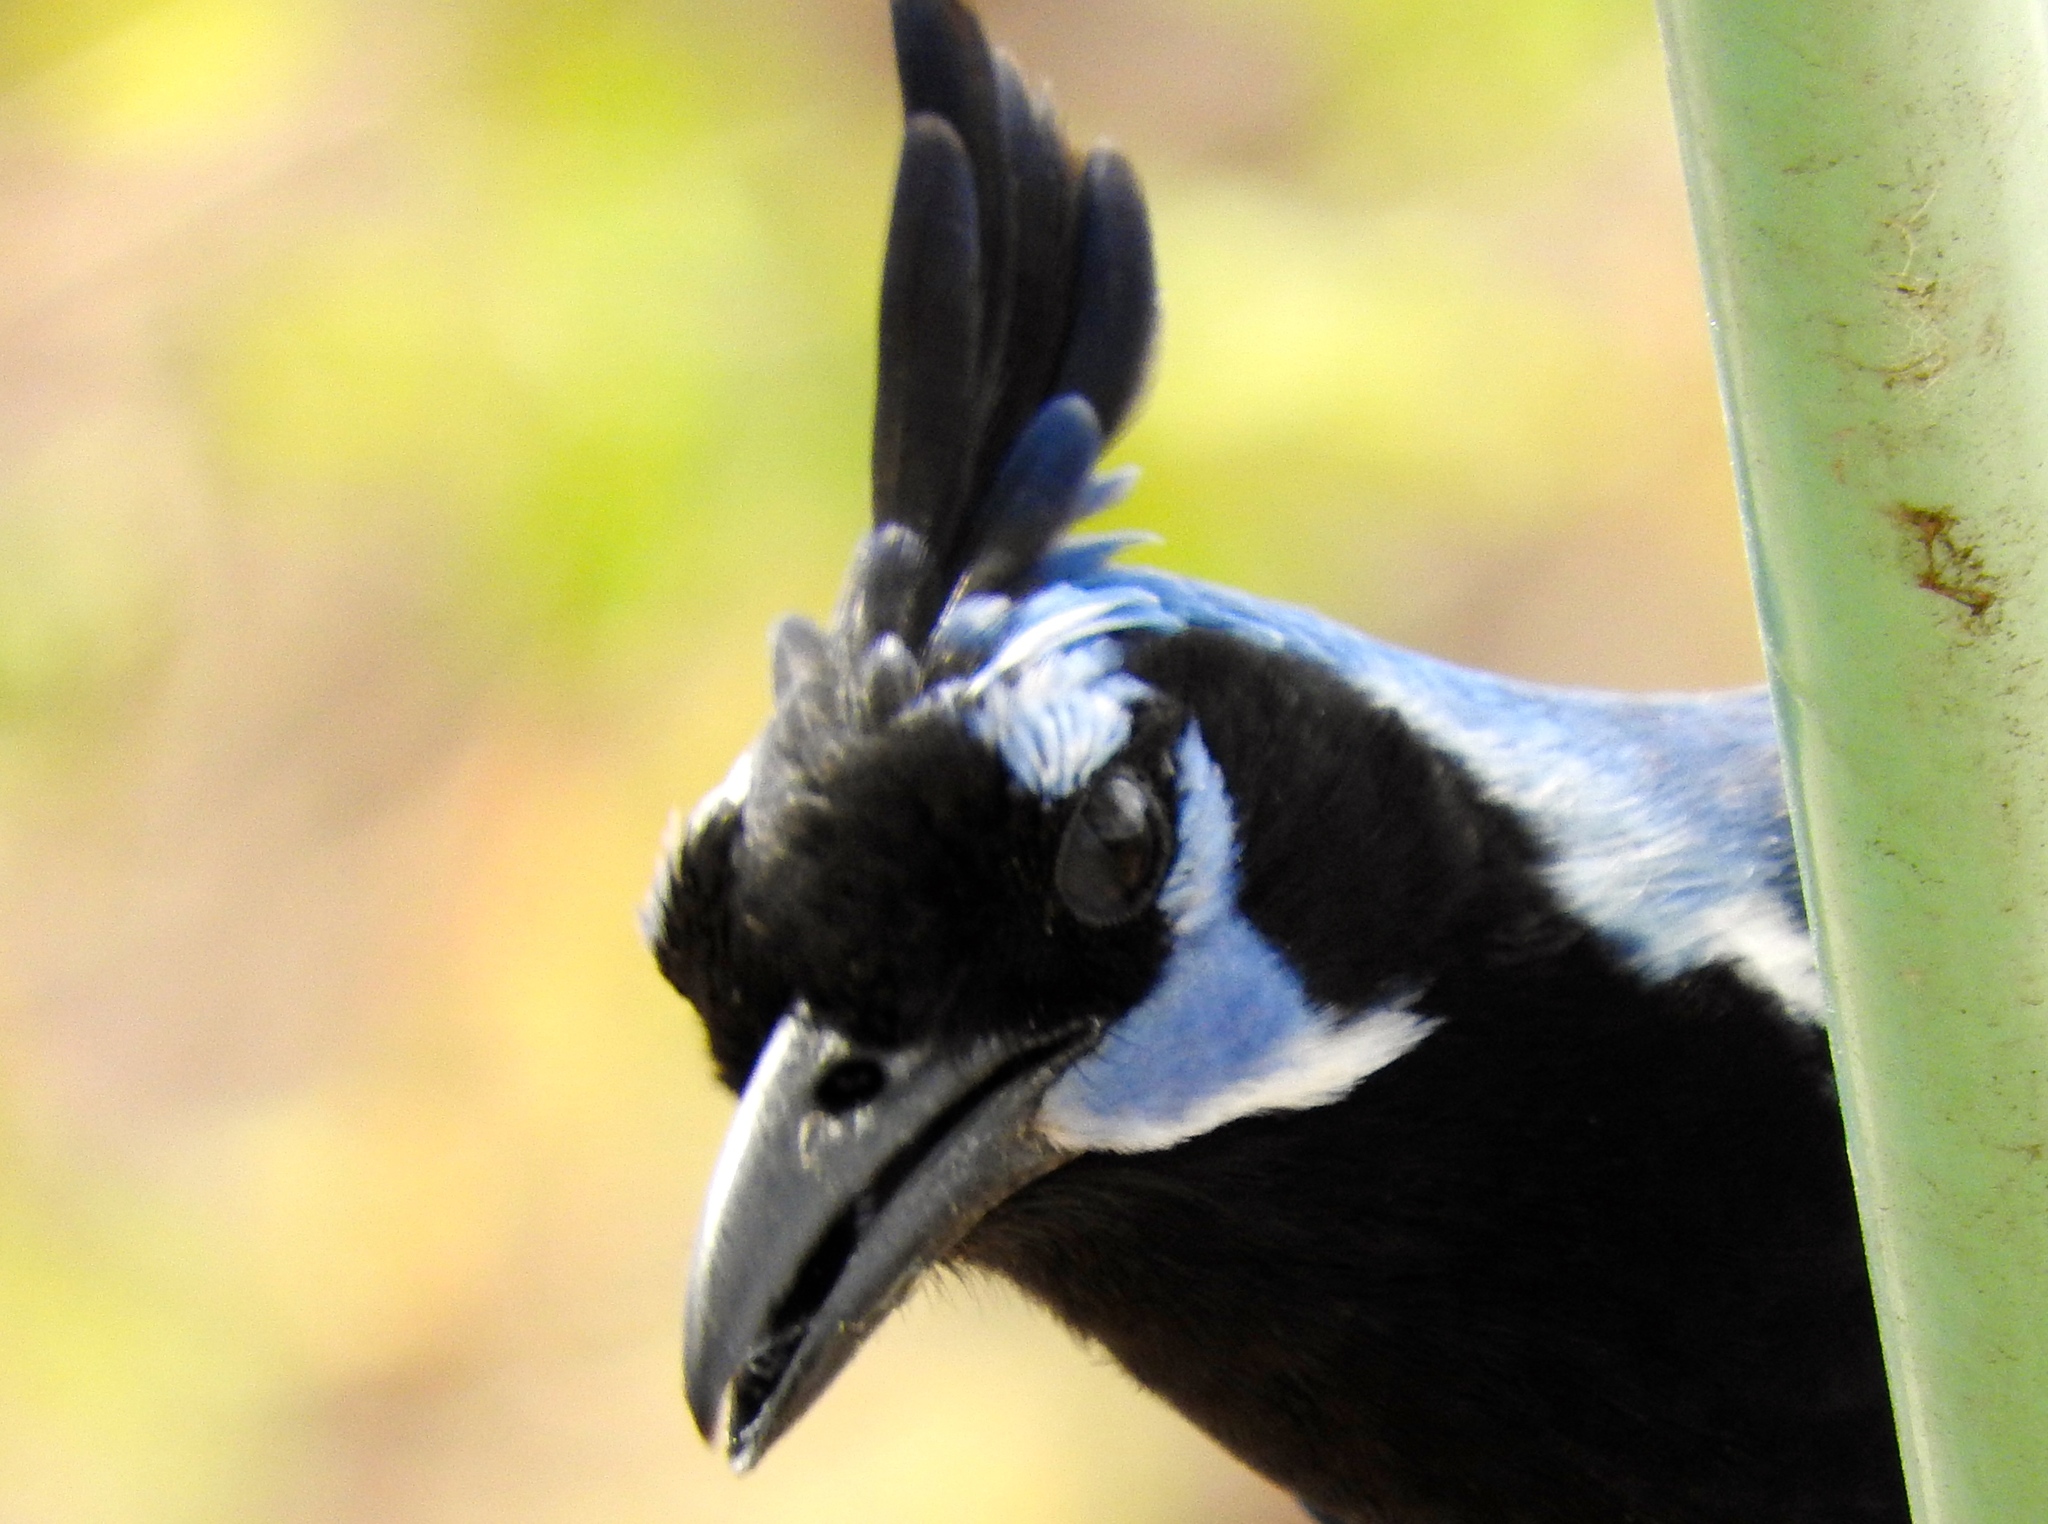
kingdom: Animalia
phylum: Chordata
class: Aves
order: Passeriformes
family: Corvidae
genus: Calocitta
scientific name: Calocitta colliei
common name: Black-throated magpie-jay
